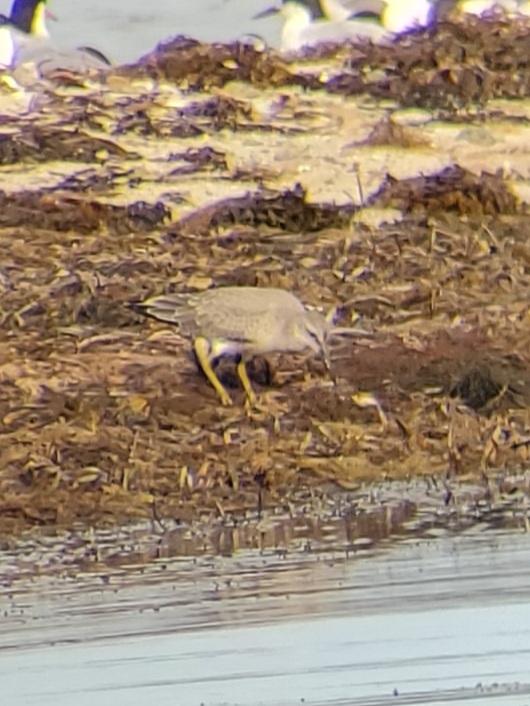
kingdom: Animalia
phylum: Chordata
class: Aves
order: Charadriiformes
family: Scolopacidae
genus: Calidris
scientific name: Calidris canutus
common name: Red knot
